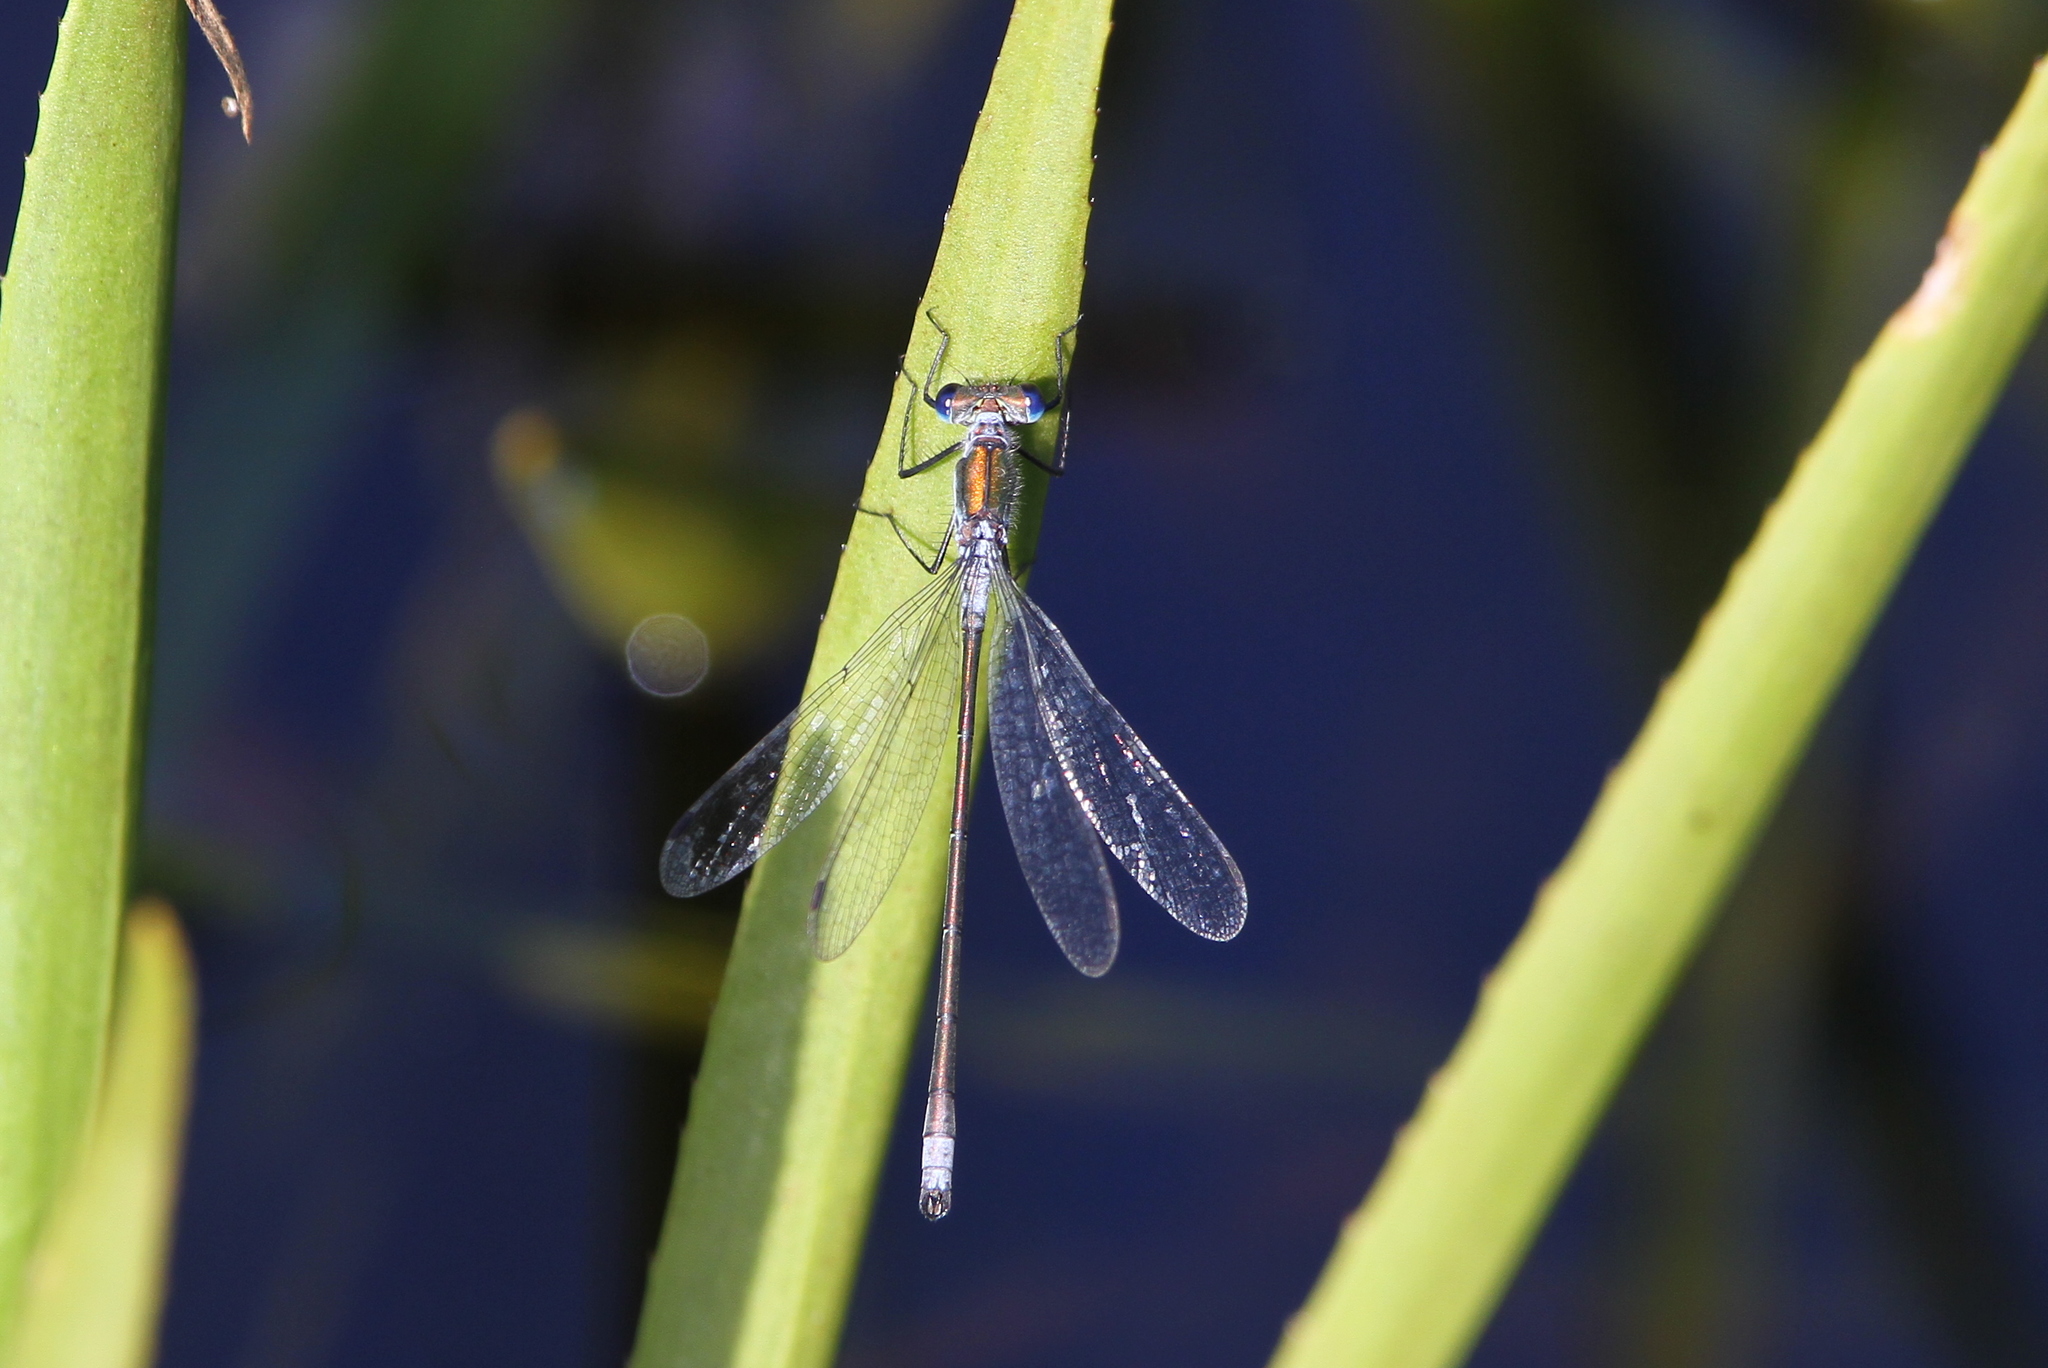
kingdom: Animalia
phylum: Arthropoda
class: Insecta
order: Odonata
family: Lestidae
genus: Lestes
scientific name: Lestes sponsa
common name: Common spreadwing
